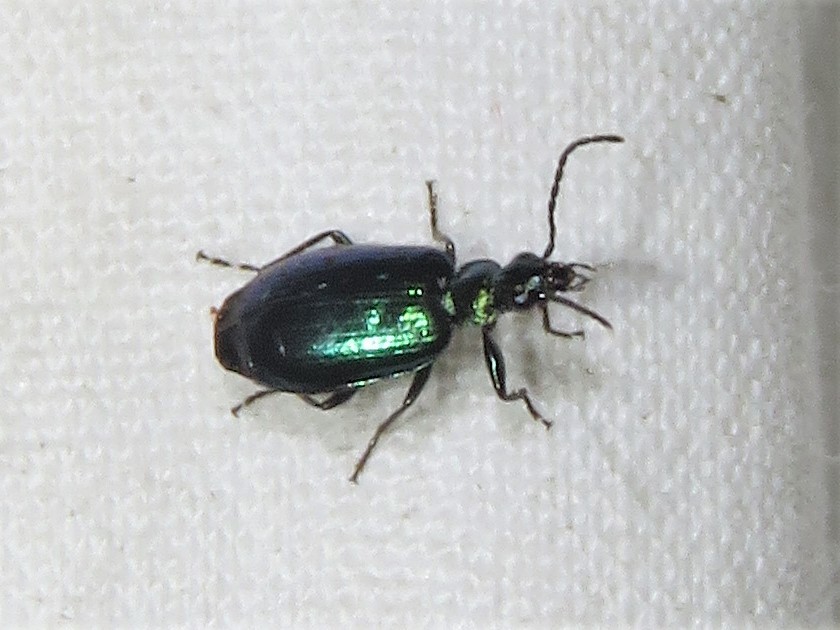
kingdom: Animalia
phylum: Arthropoda
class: Insecta
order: Coleoptera
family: Carabidae
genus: Lebia
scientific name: Lebia viridis
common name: Flower lebia beetle
